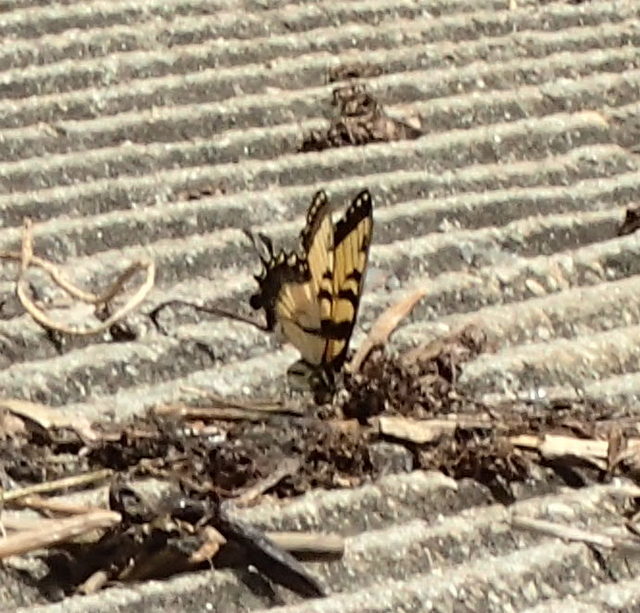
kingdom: Animalia
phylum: Arthropoda
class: Insecta
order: Lepidoptera
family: Papilionidae
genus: Papilio
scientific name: Papilio glaucus
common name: Tiger swallowtail
